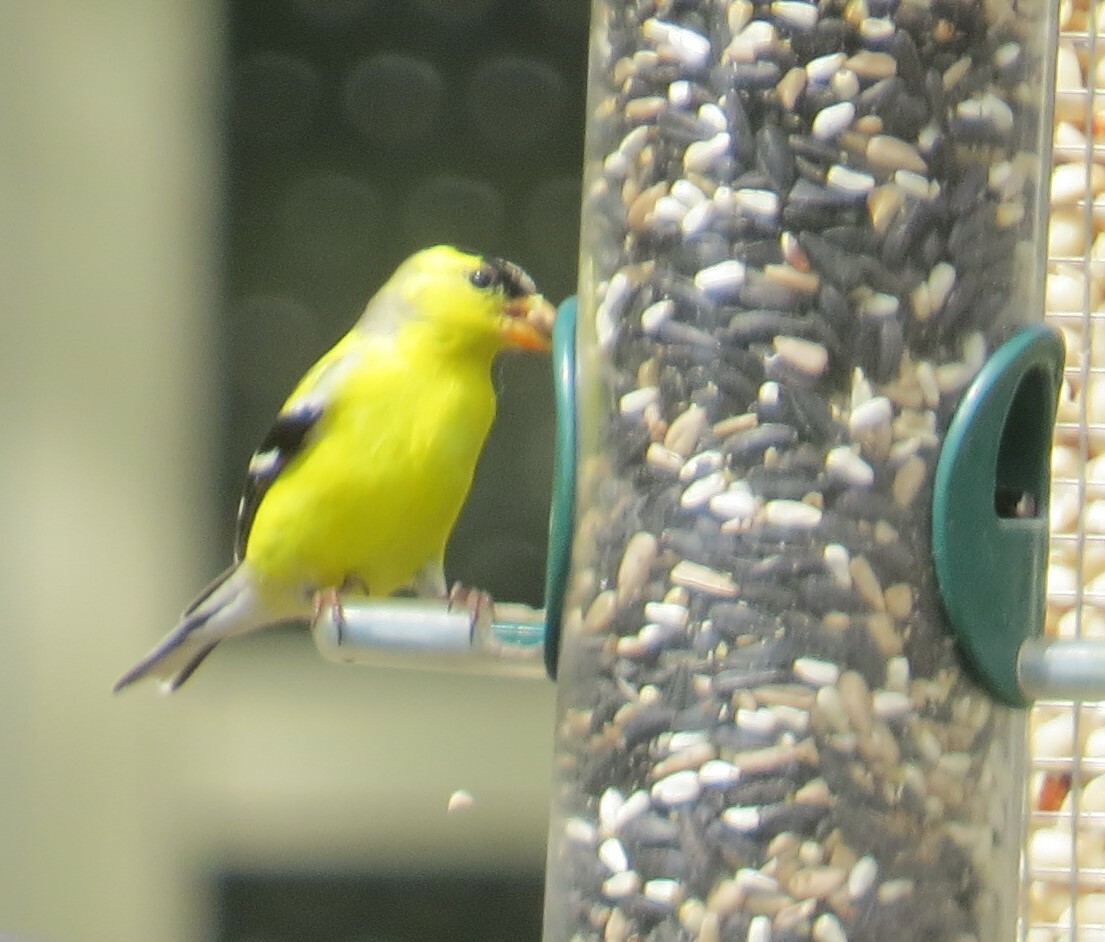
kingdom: Animalia
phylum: Chordata
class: Aves
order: Passeriformes
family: Fringillidae
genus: Spinus
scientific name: Spinus tristis
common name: American goldfinch
